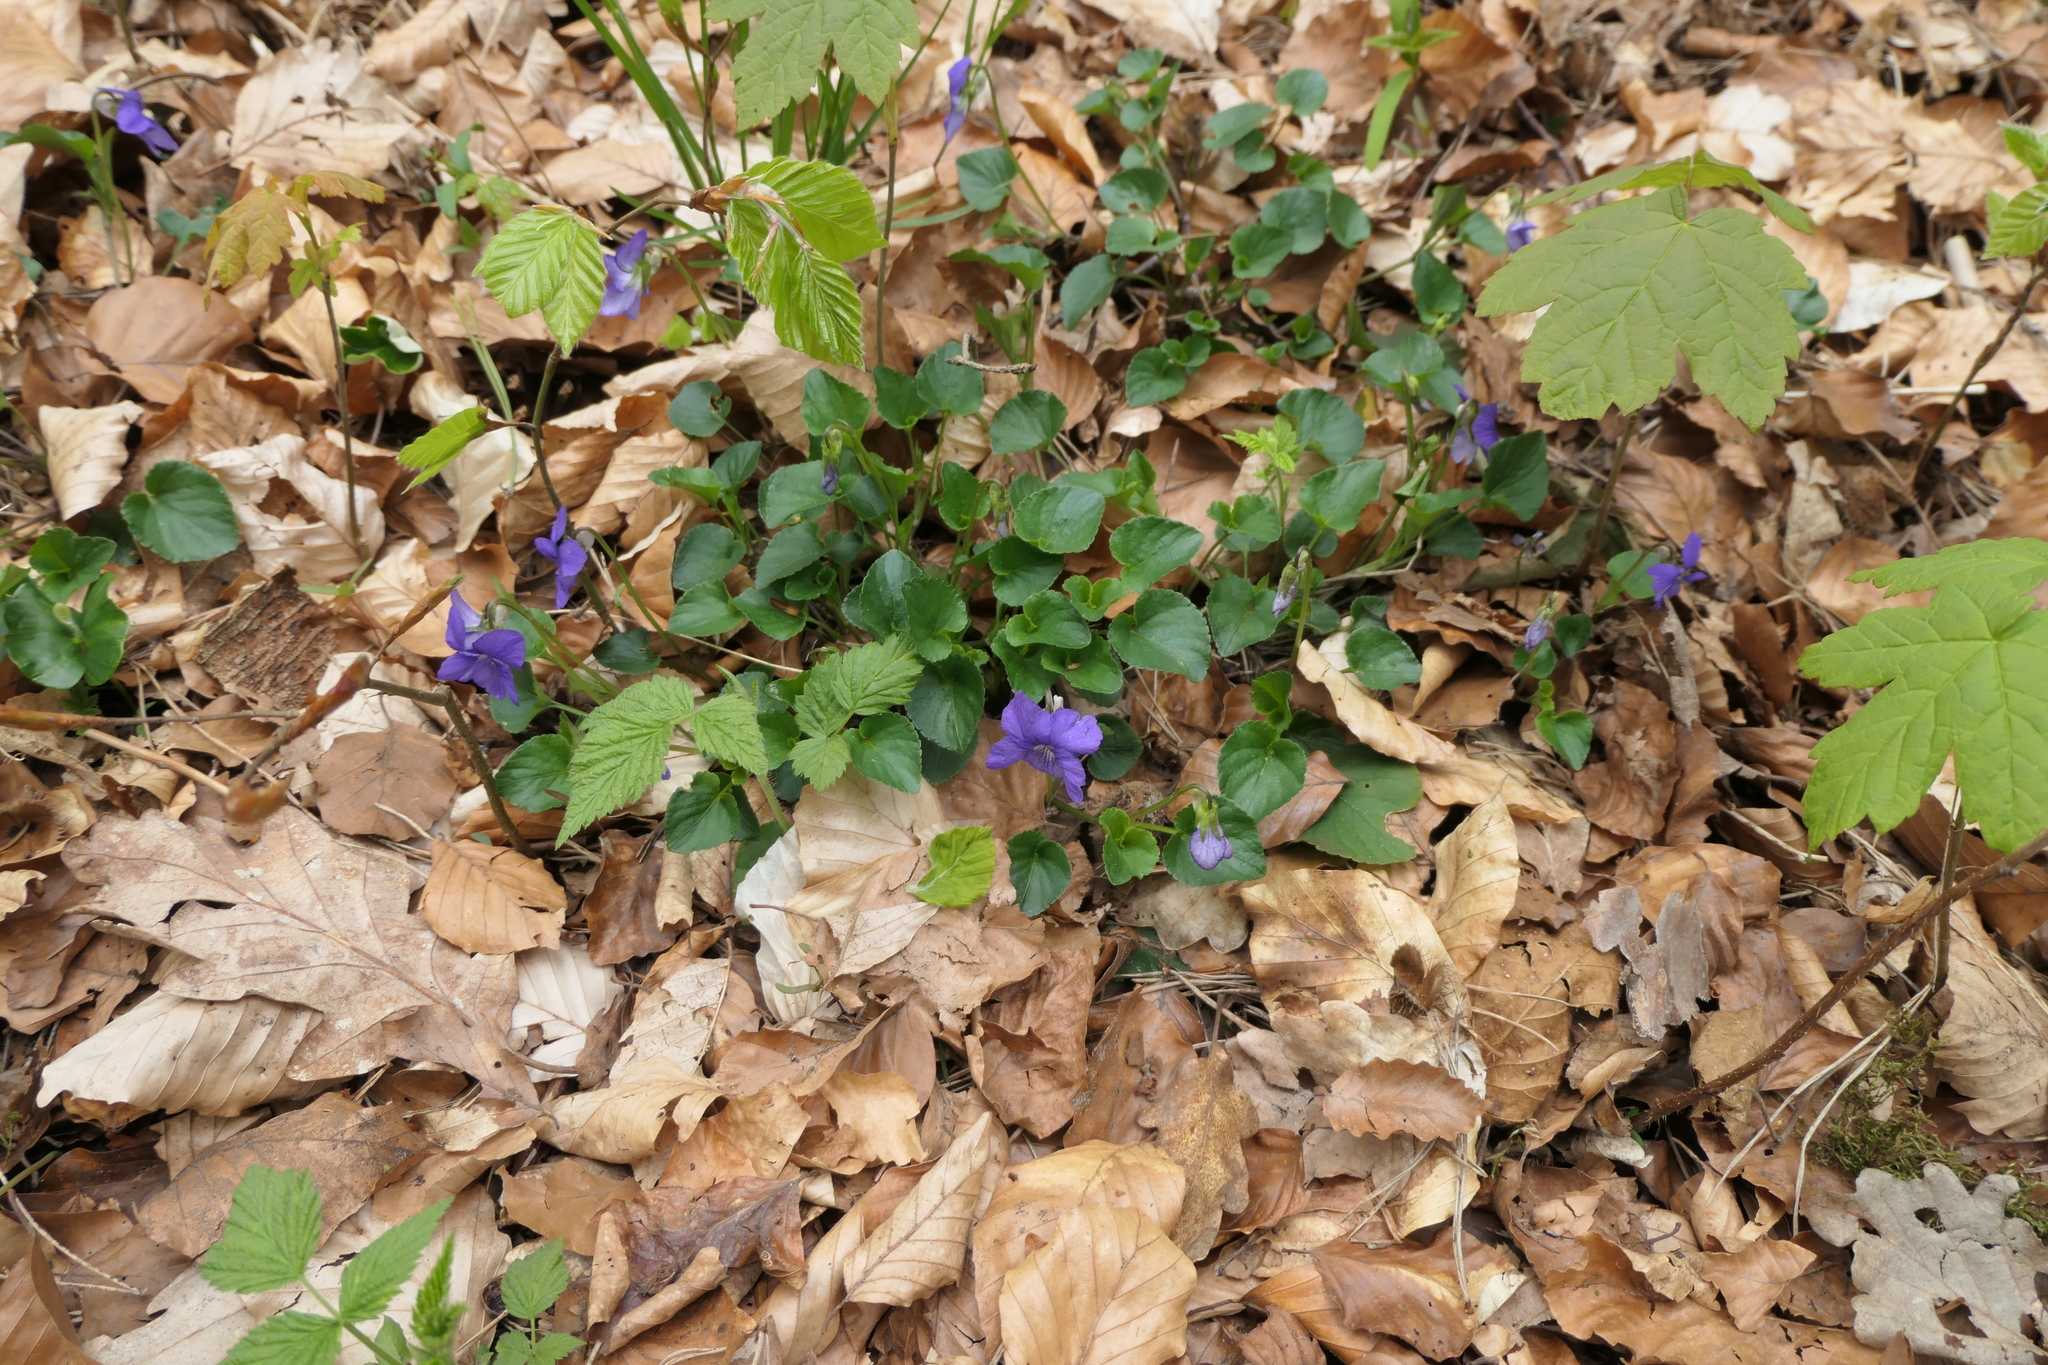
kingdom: Plantae
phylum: Tracheophyta
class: Magnoliopsida
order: Malpighiales
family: Violaceae
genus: Viola
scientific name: Viola riviniana
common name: Common dog-violet
